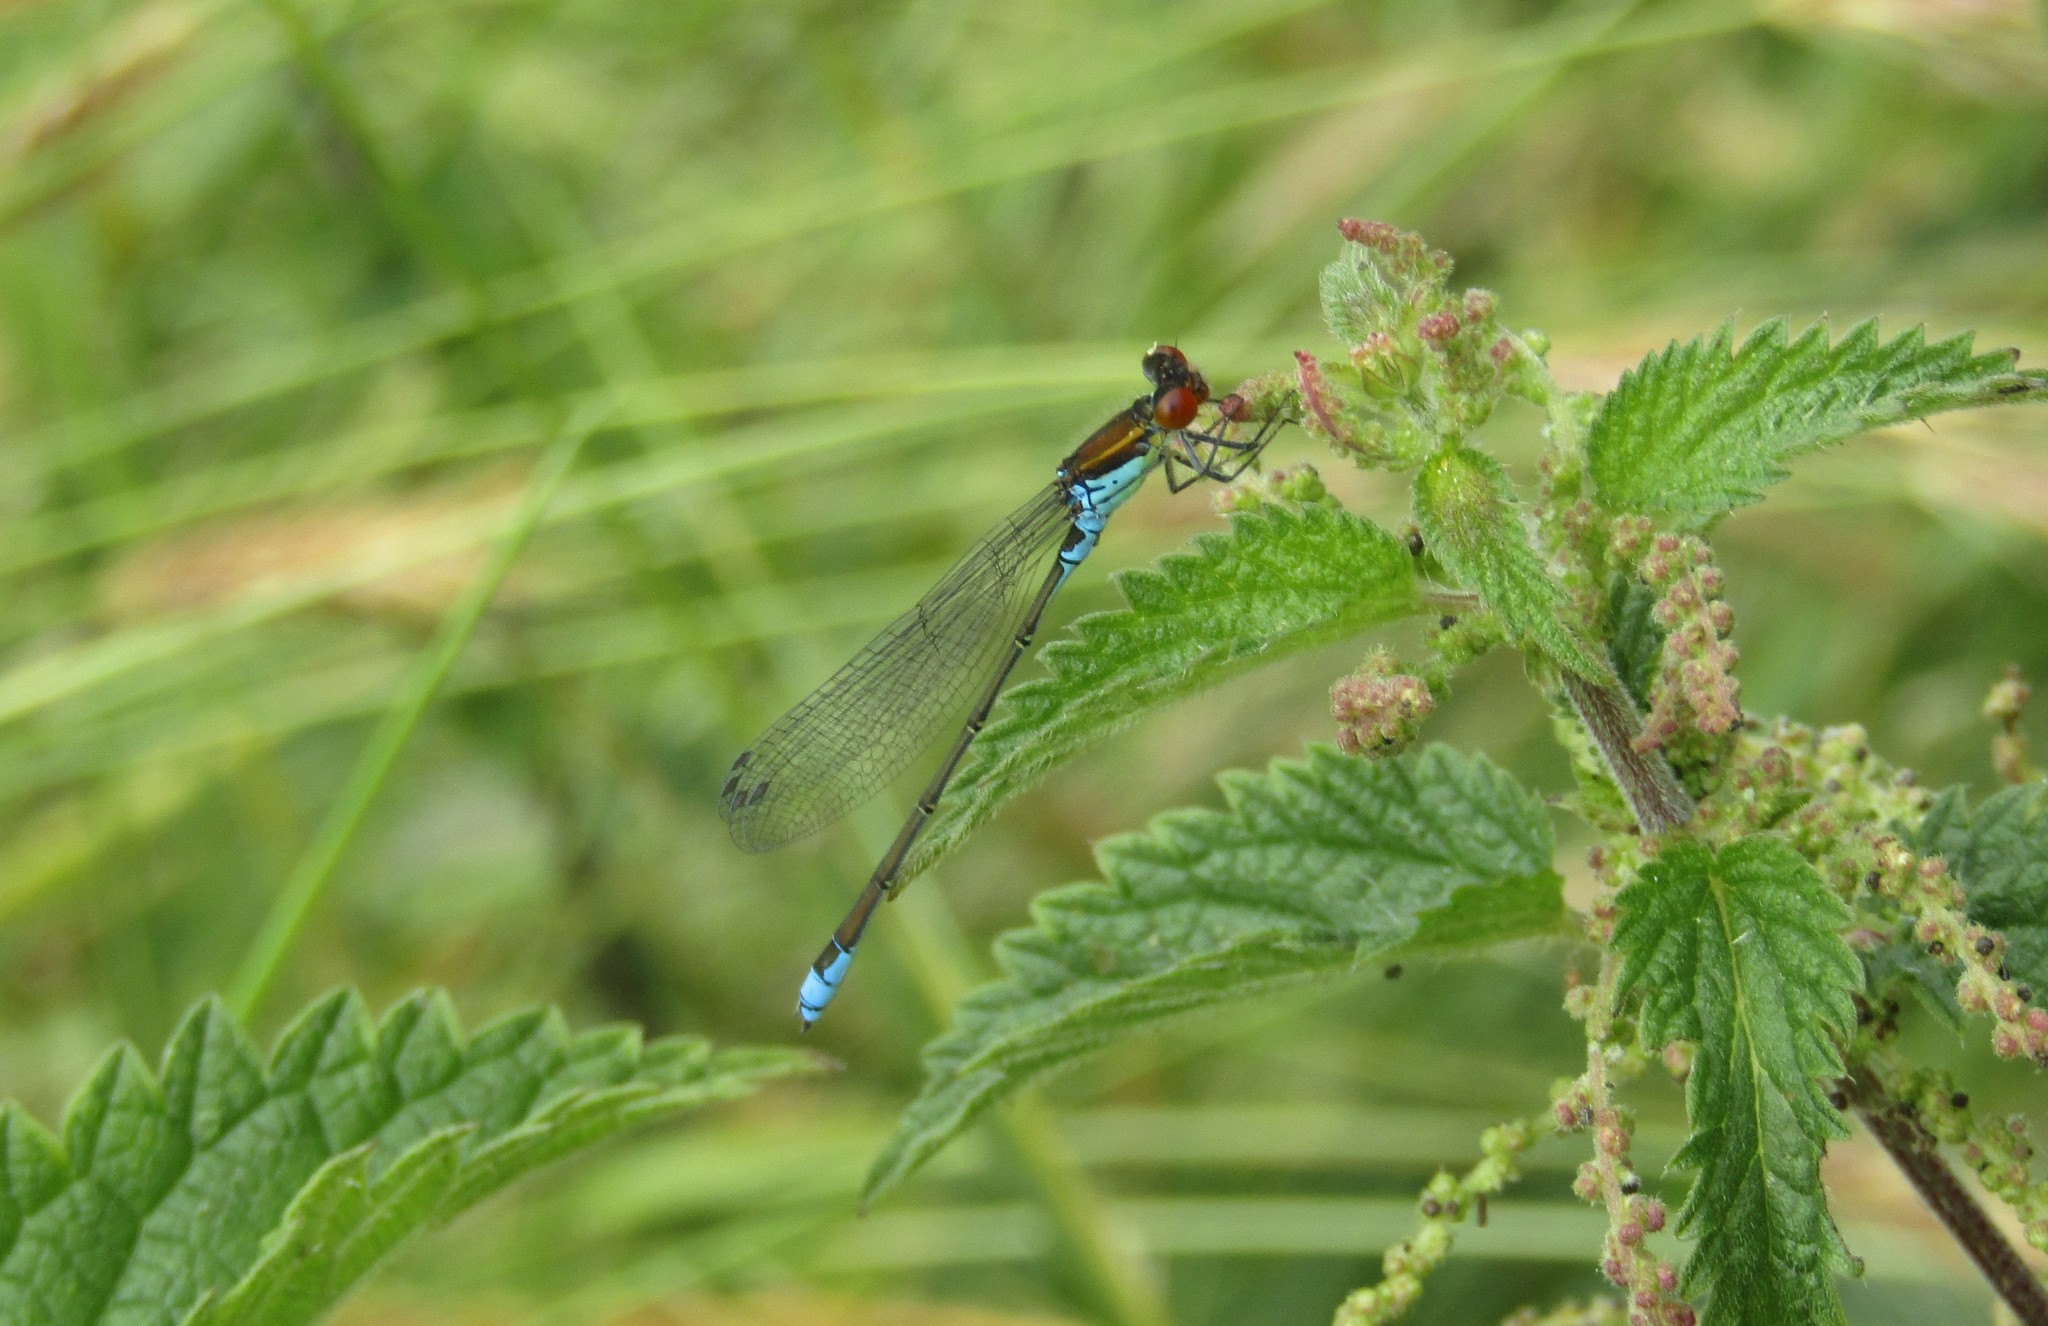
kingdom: Animalia
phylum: Arthropoda
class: Insecta
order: Odonata
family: Coenagrionidae
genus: Erythromma
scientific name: Erythromma viridulum
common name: Small red-eyed damselfly
